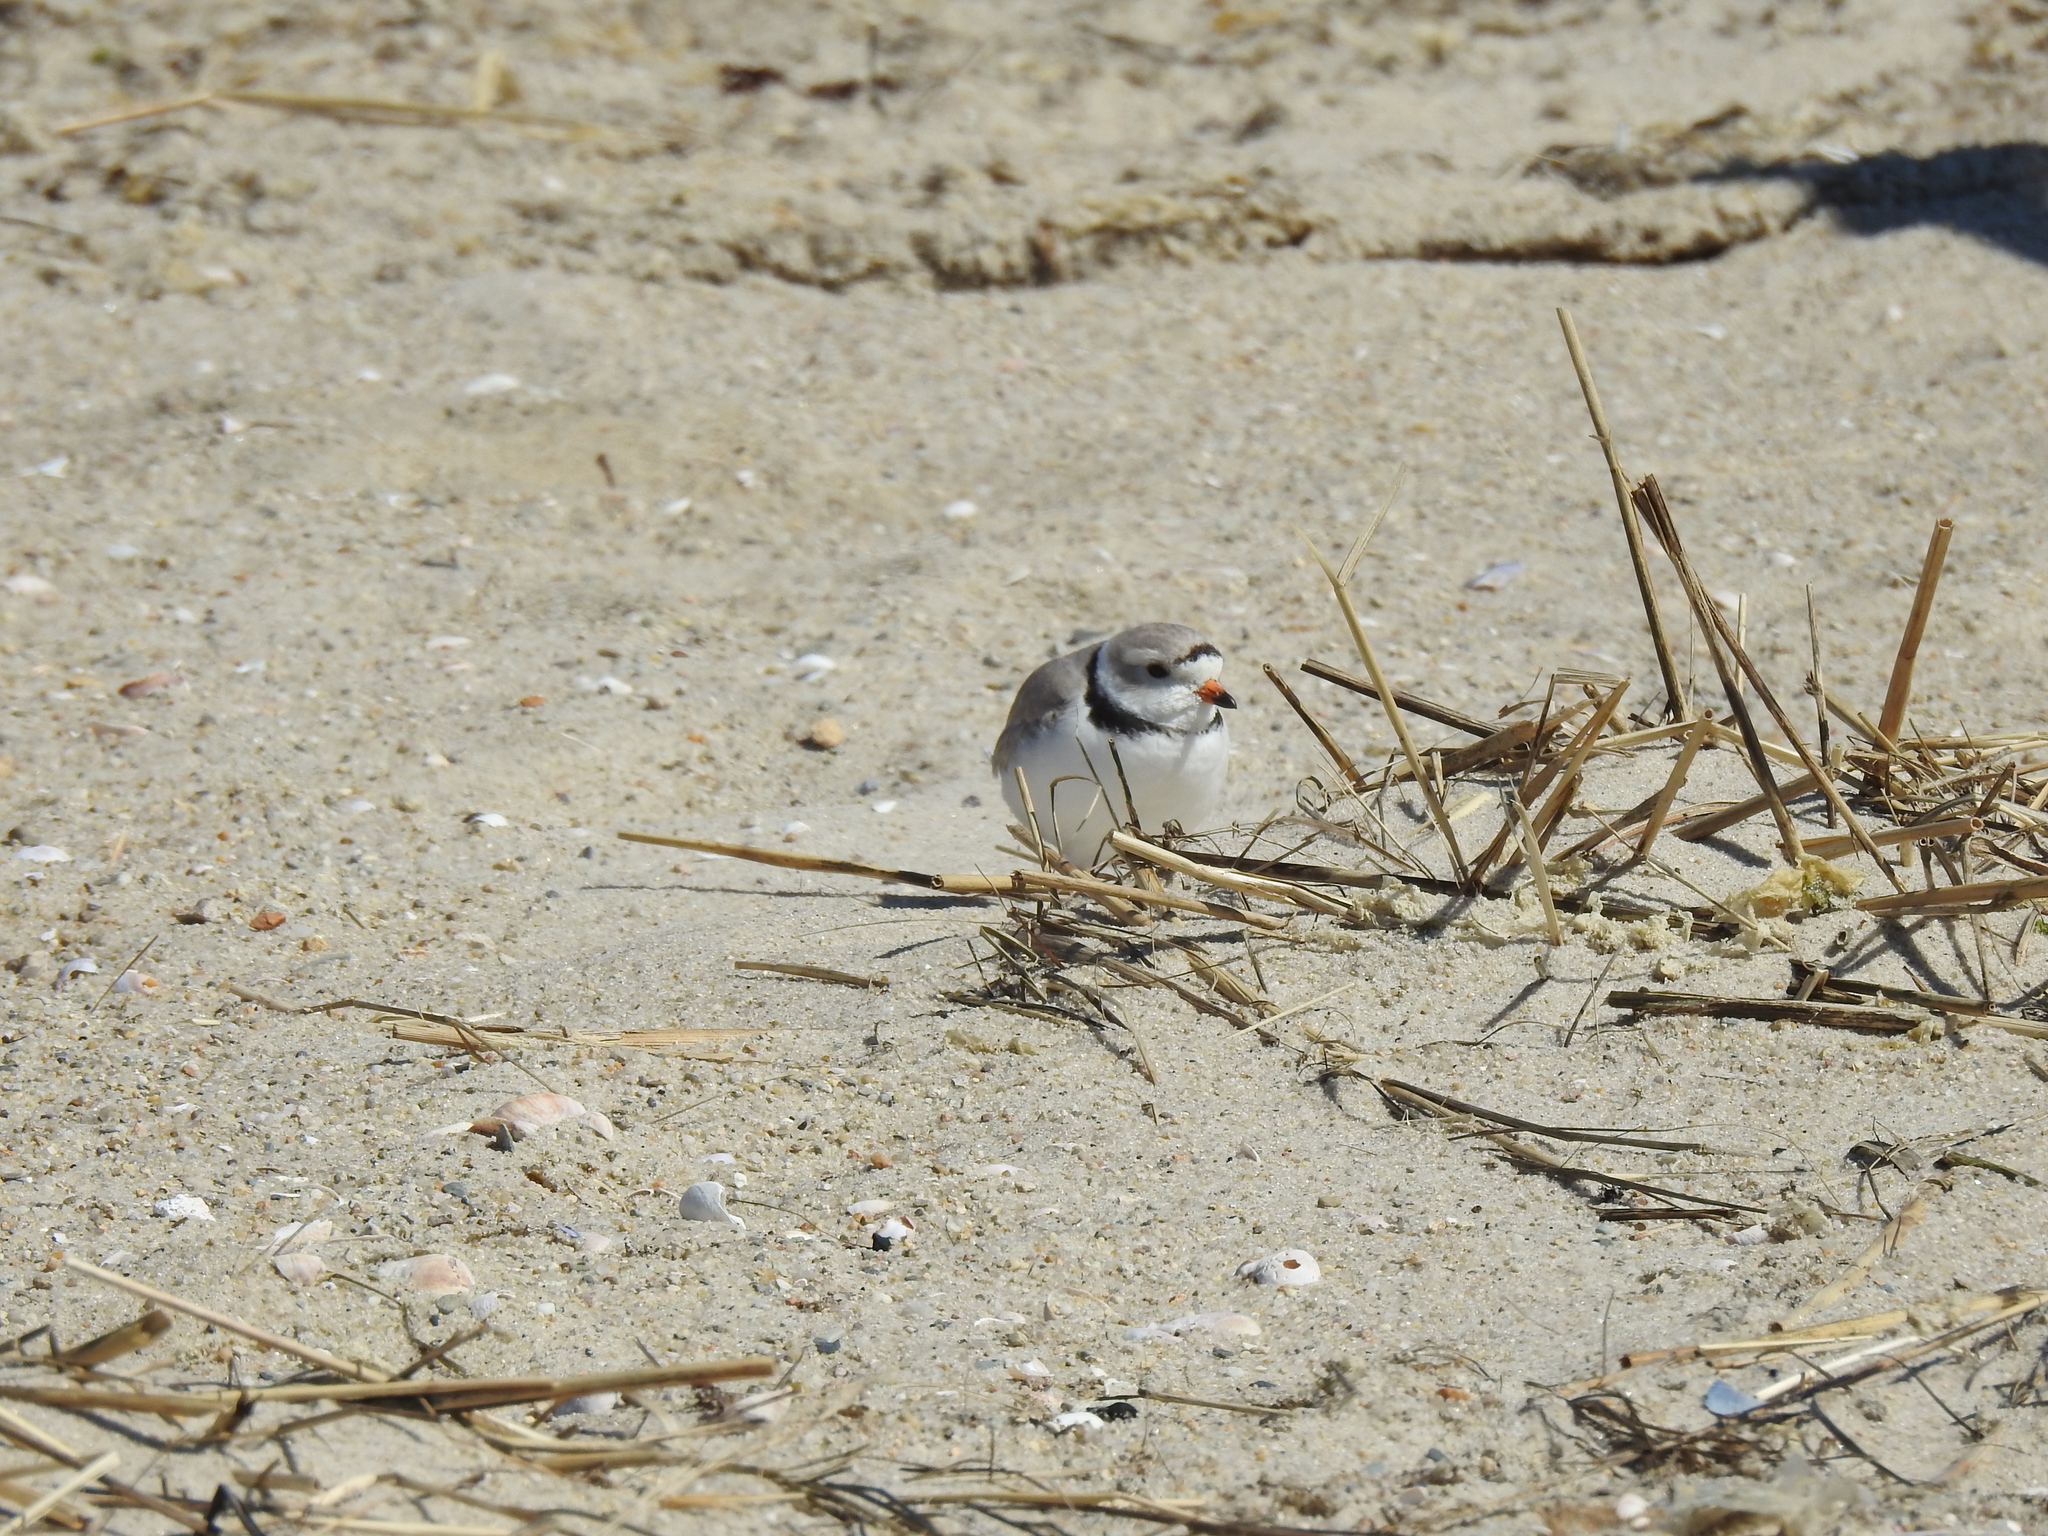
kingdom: Animalia
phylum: Chordata
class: Aves
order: Charadriiformes
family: Charadriidae
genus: Charadrius
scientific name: Charadrius melodus
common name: Piping plover
